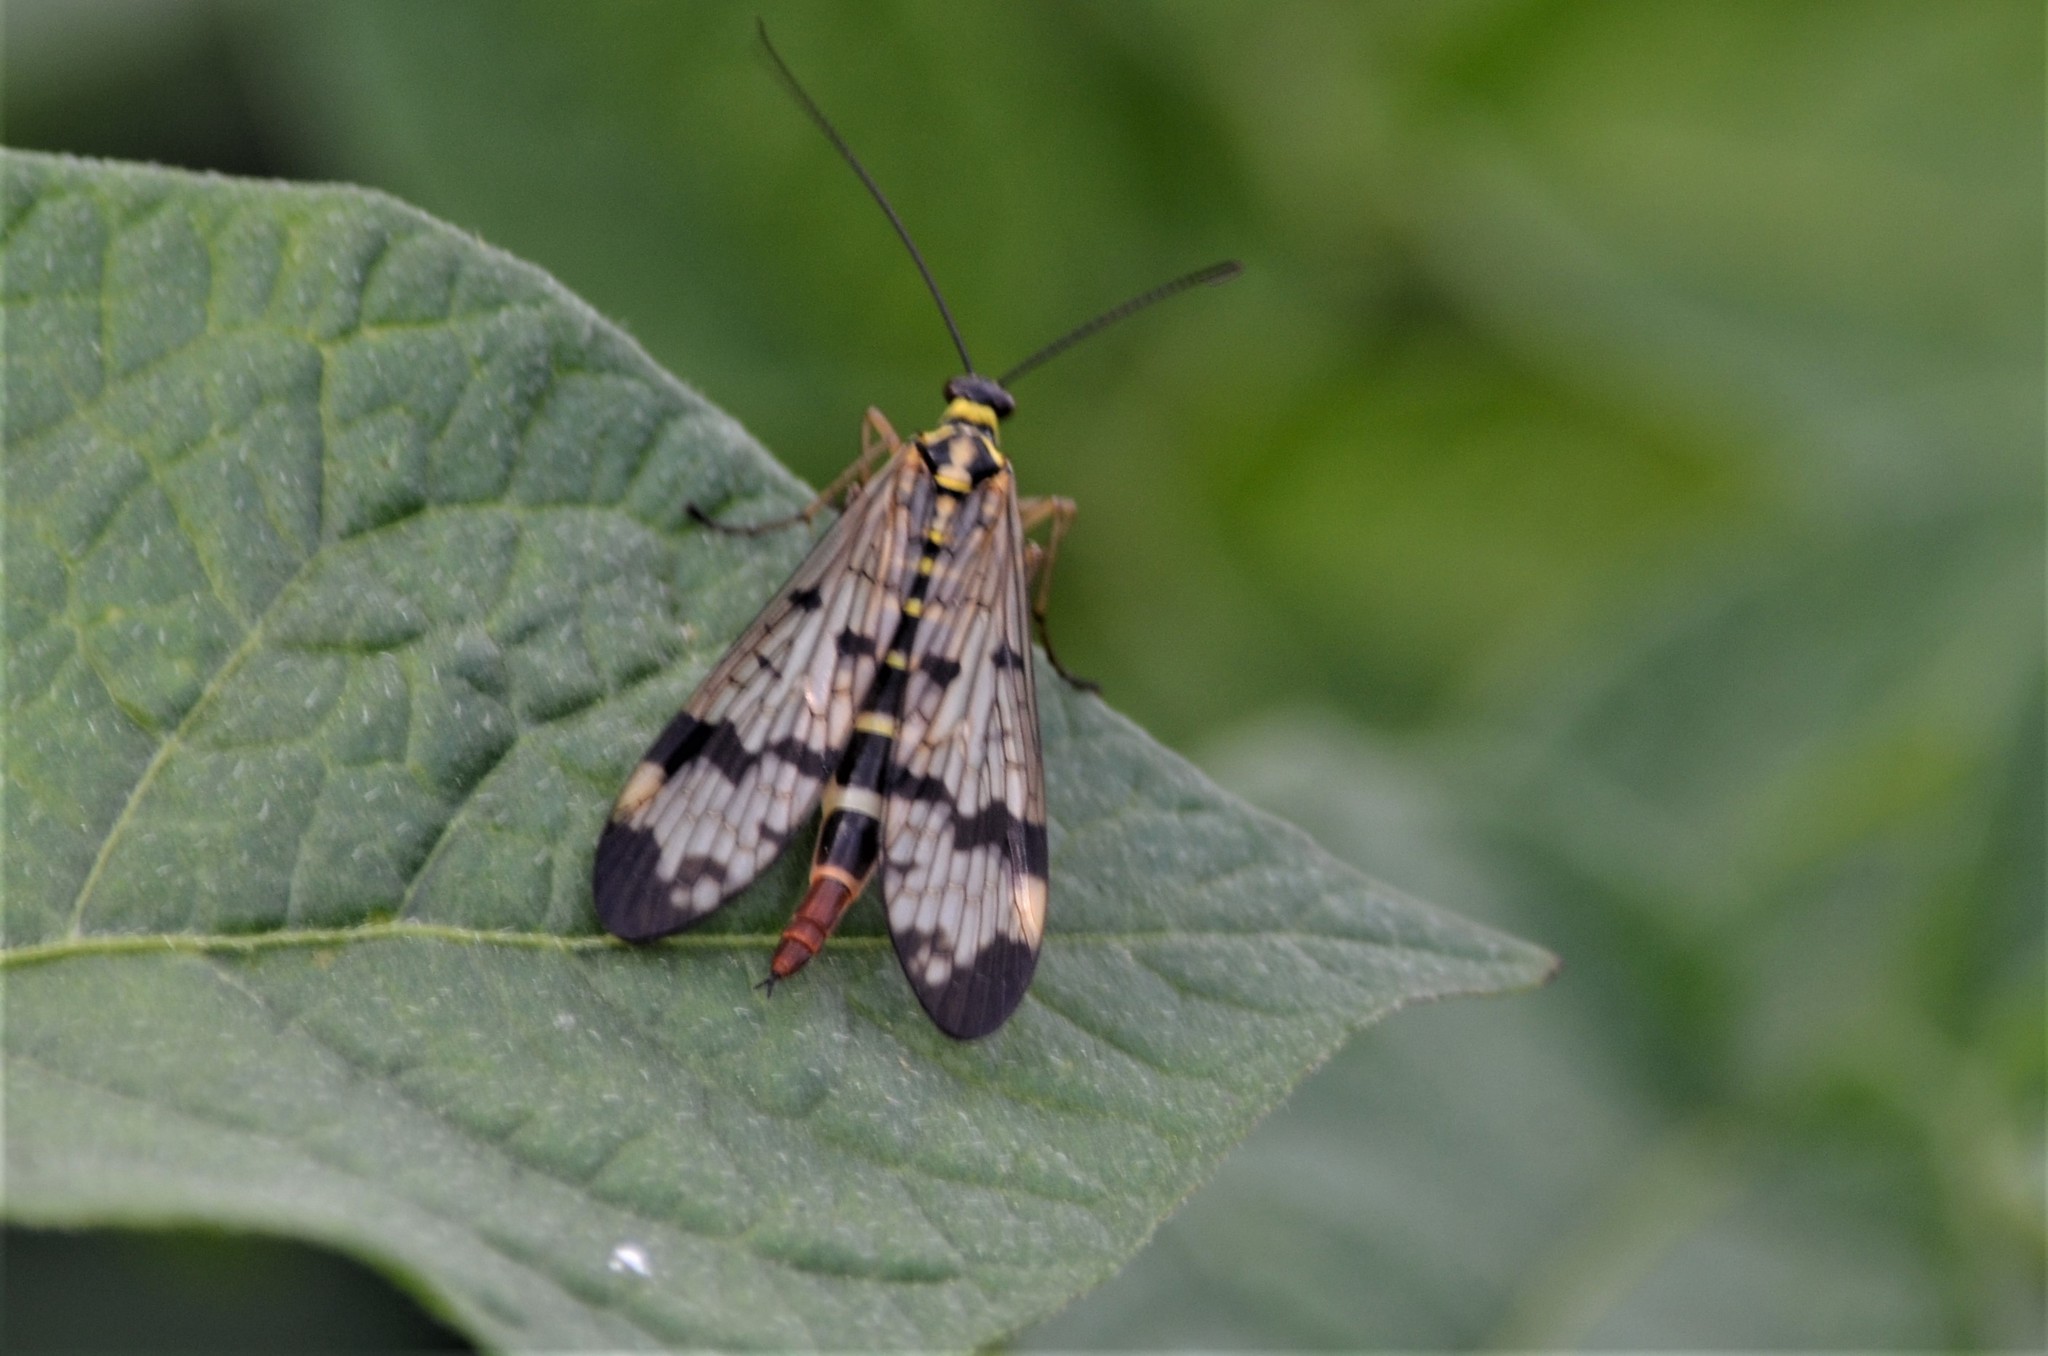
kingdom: Animalia
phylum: Arthropoda
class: Insecta
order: Mecoptera
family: Panorpidae
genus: Panorpa
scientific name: Panorpa communis
